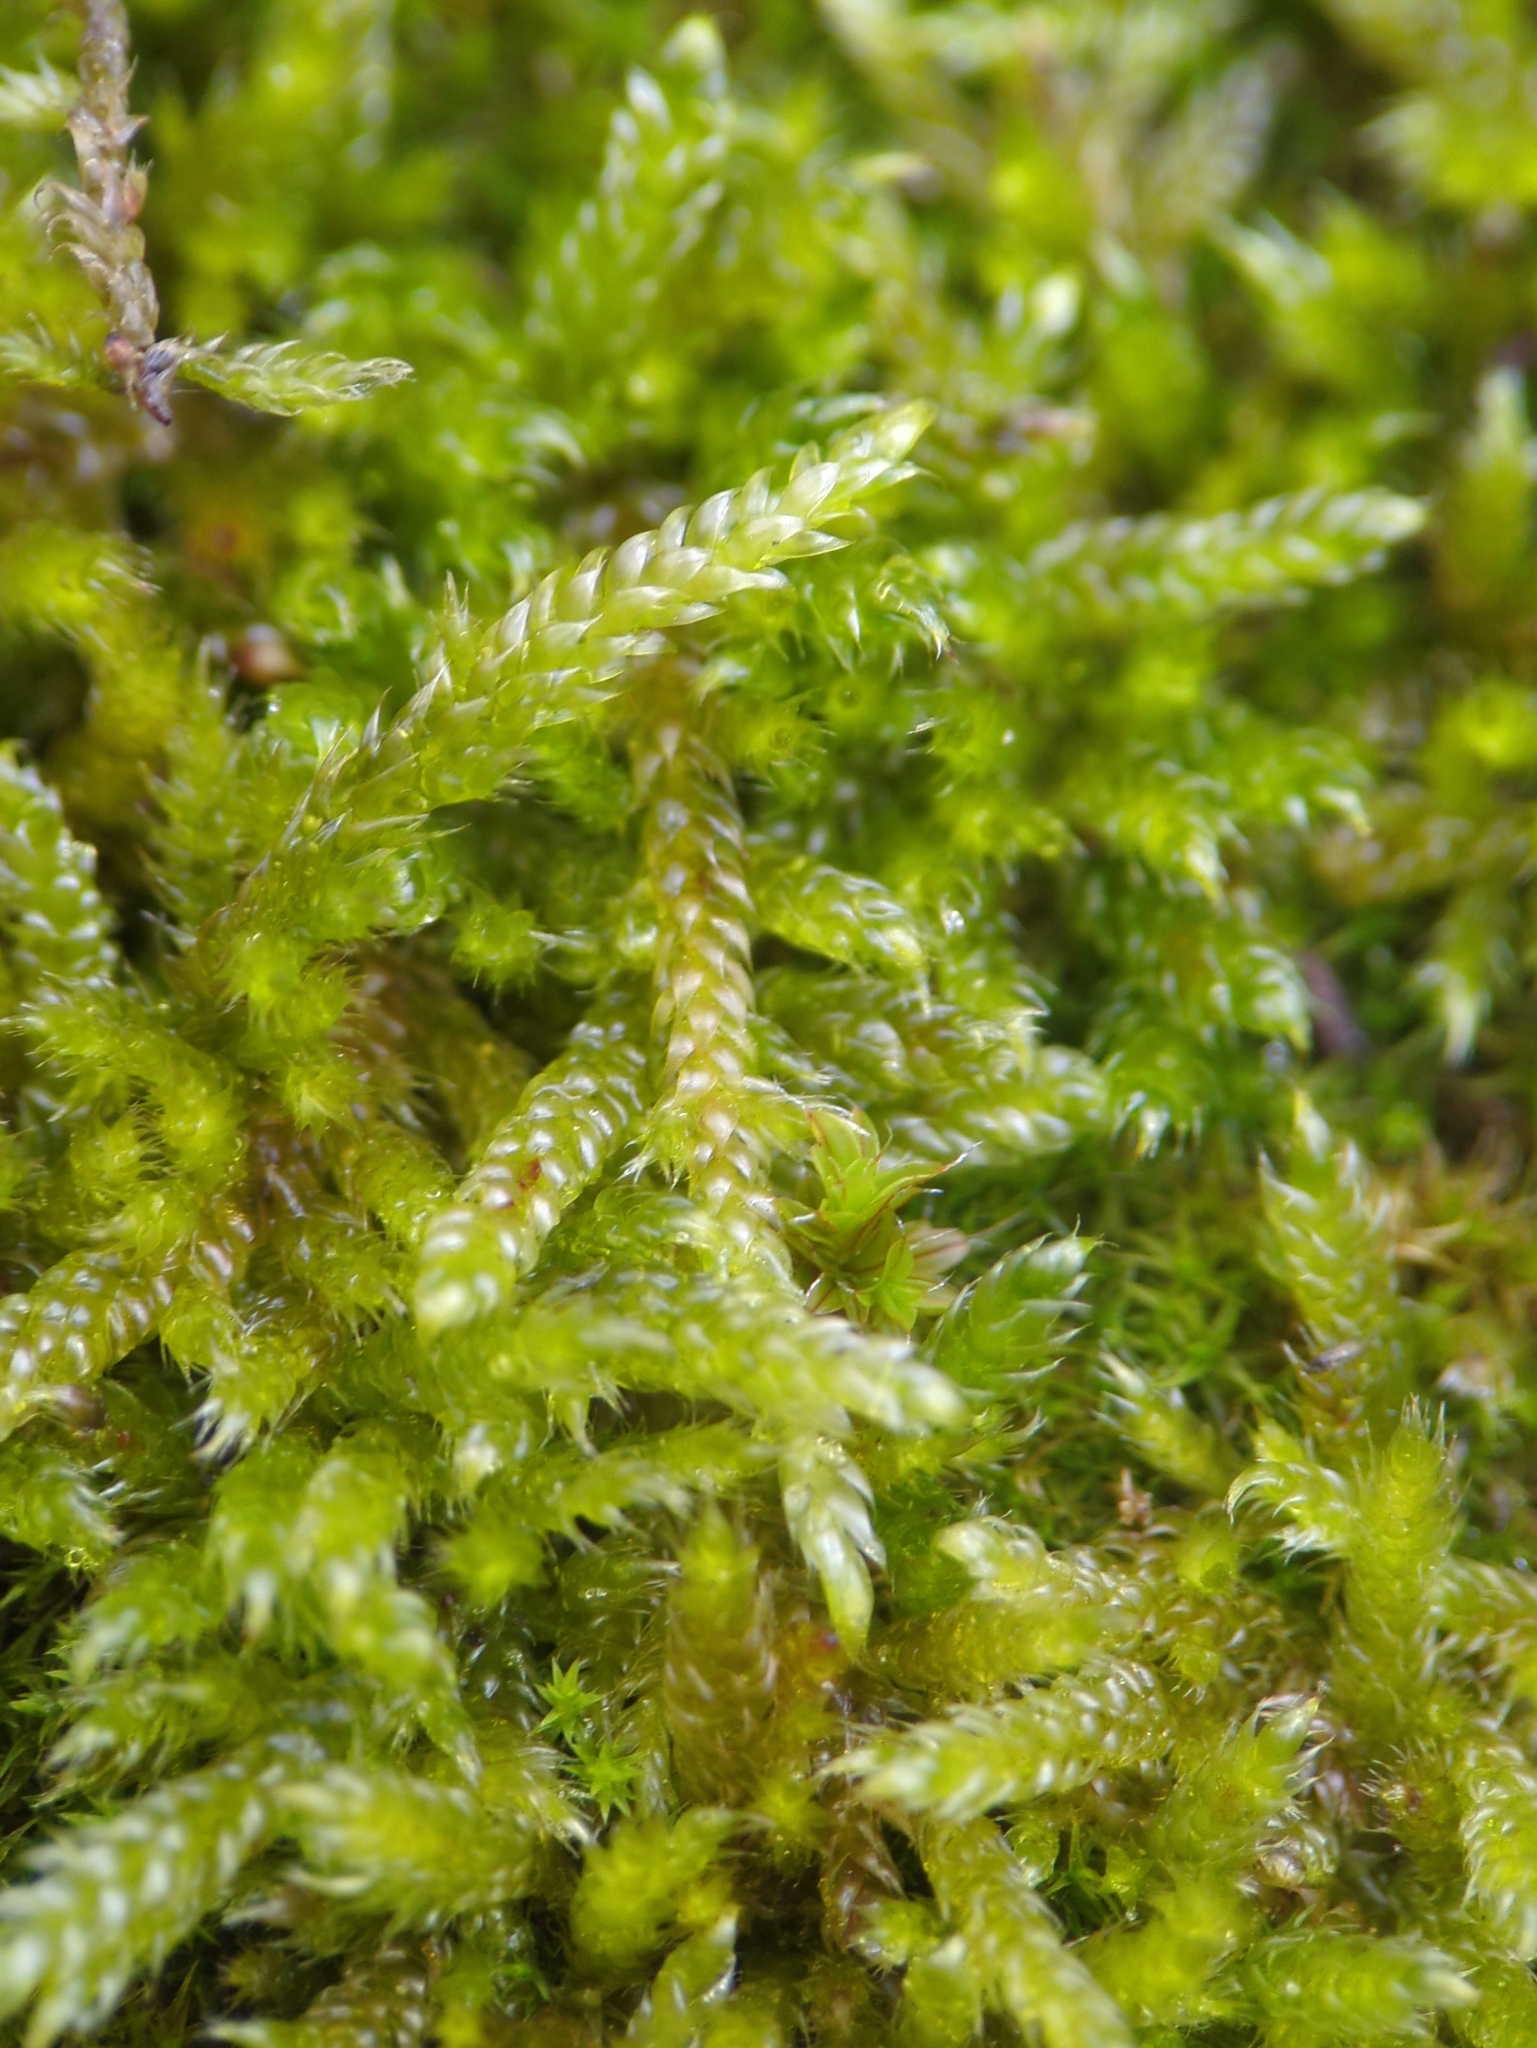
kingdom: Plantae
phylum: Bryophyta
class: Bryopsida
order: Hypnales
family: Hypnaceae
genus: Hypnum
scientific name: Hypnum cupressiforme
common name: Cypress-leaved plait-moss
